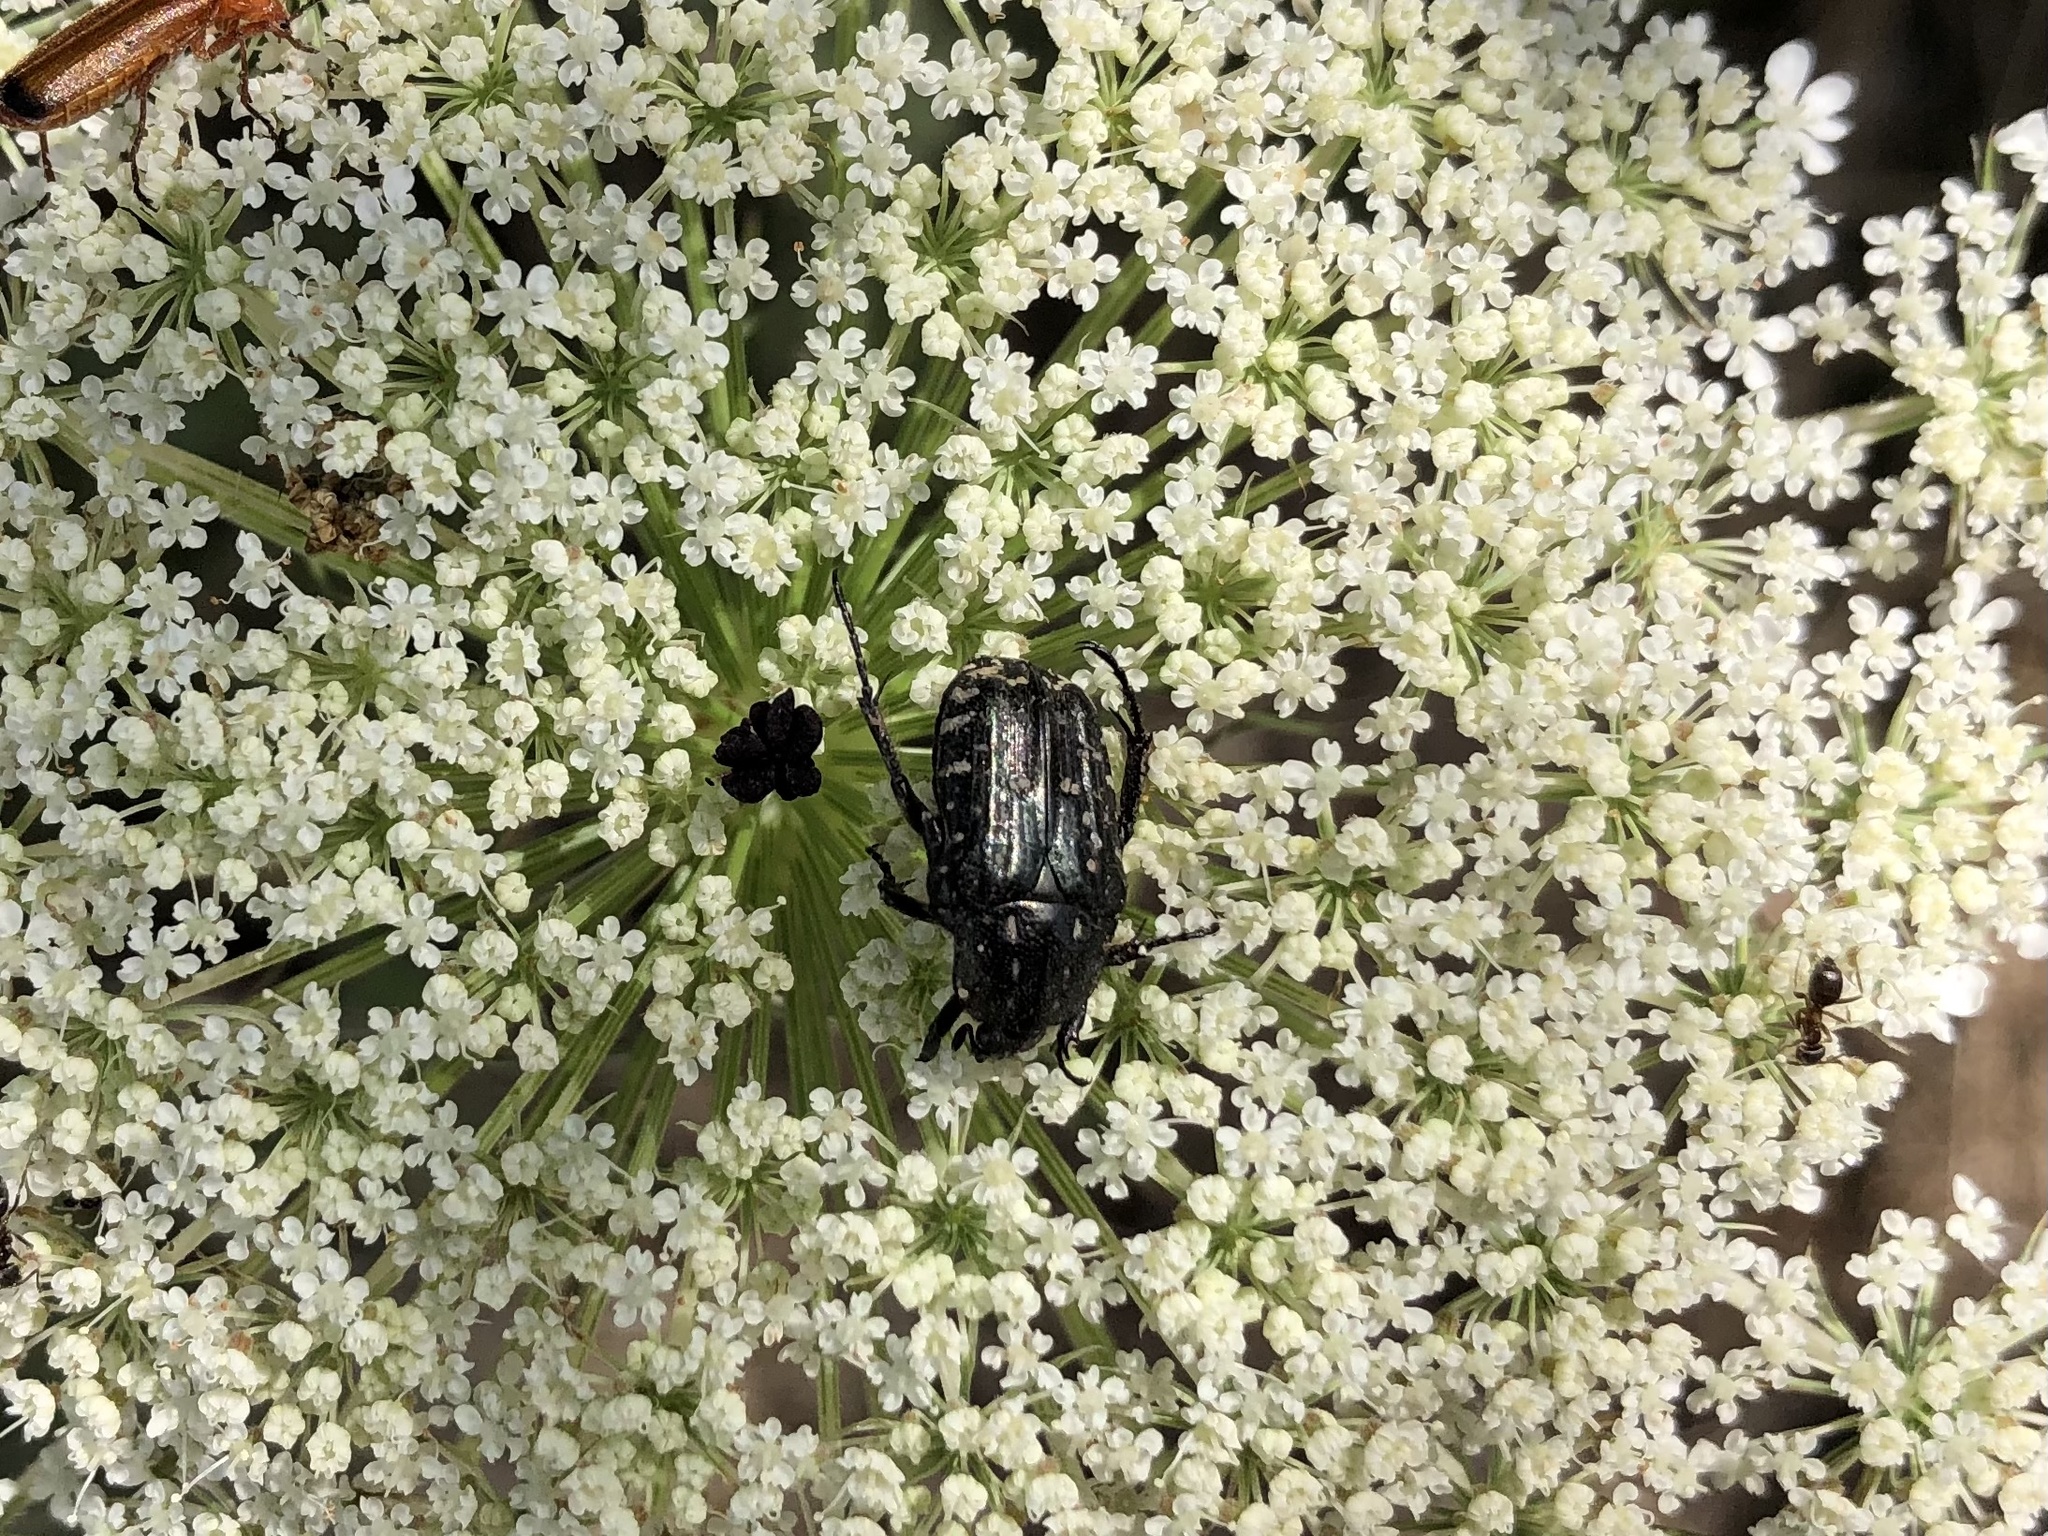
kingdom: Animalia
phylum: Arthropoda
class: Insecta
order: Coleoptera
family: Scarabaeidae
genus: Oxythyrea
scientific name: Oxythyrea funesta
